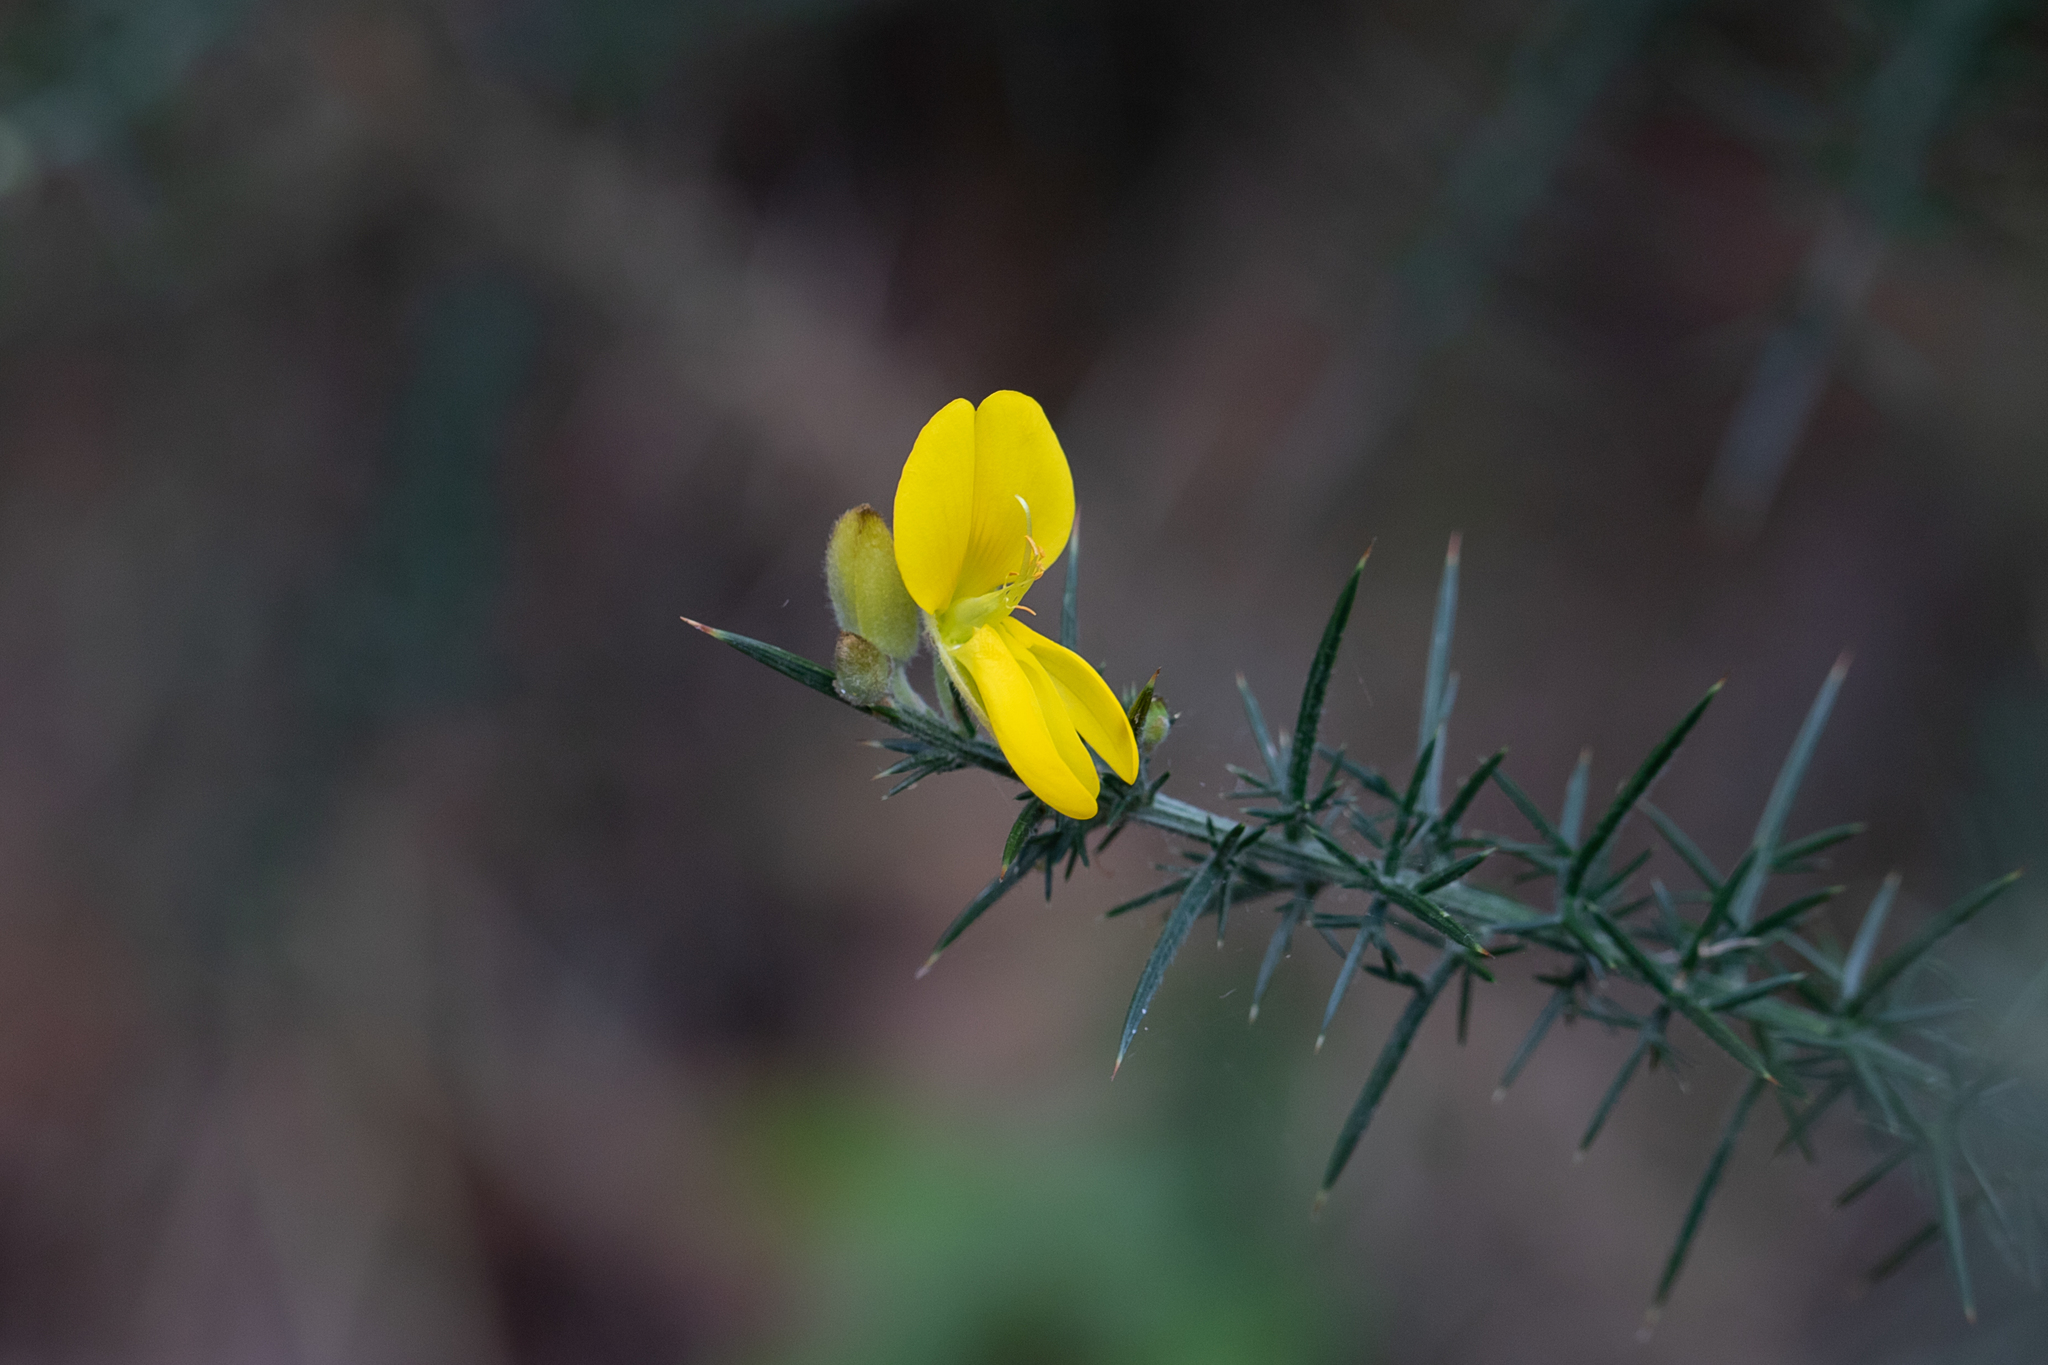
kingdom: Plantae
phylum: Tracheophyta
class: Magnoliopsida
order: Fabales
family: Fabaceae
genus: Ulex
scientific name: Ulex europaeus
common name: Common gorse
